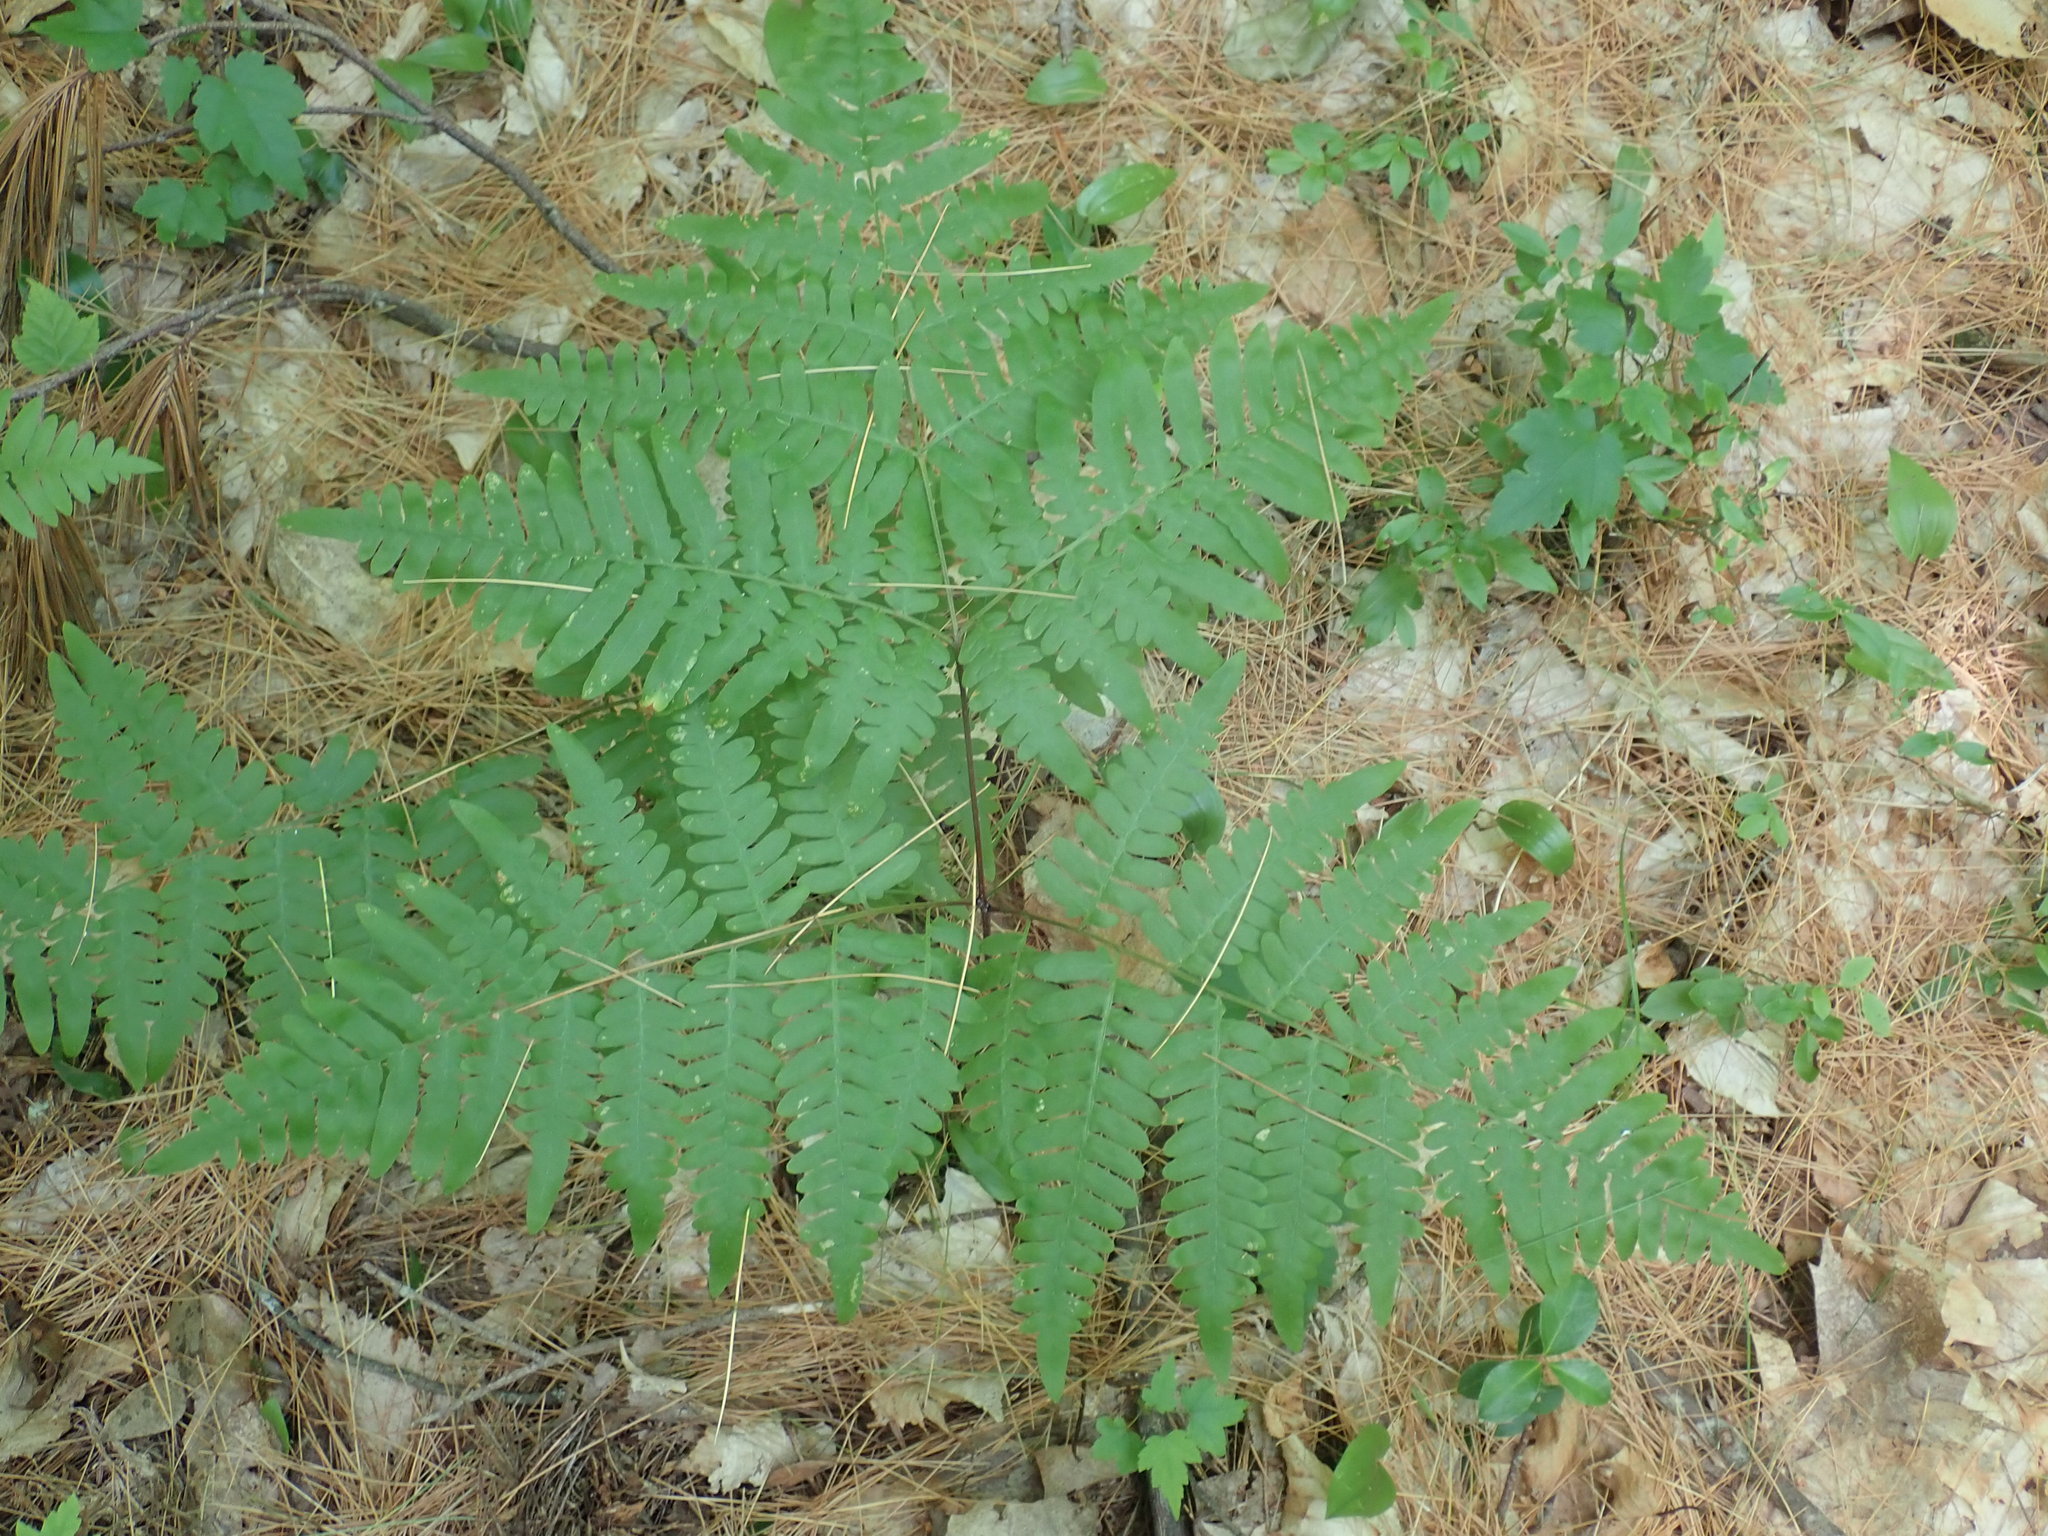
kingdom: Plantae
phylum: Tracheophyta
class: Polypodiopsida
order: Polypodiales
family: Dennstaedtiaceae
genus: Pteridium
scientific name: Pteridium aquilinum
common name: Bracken
